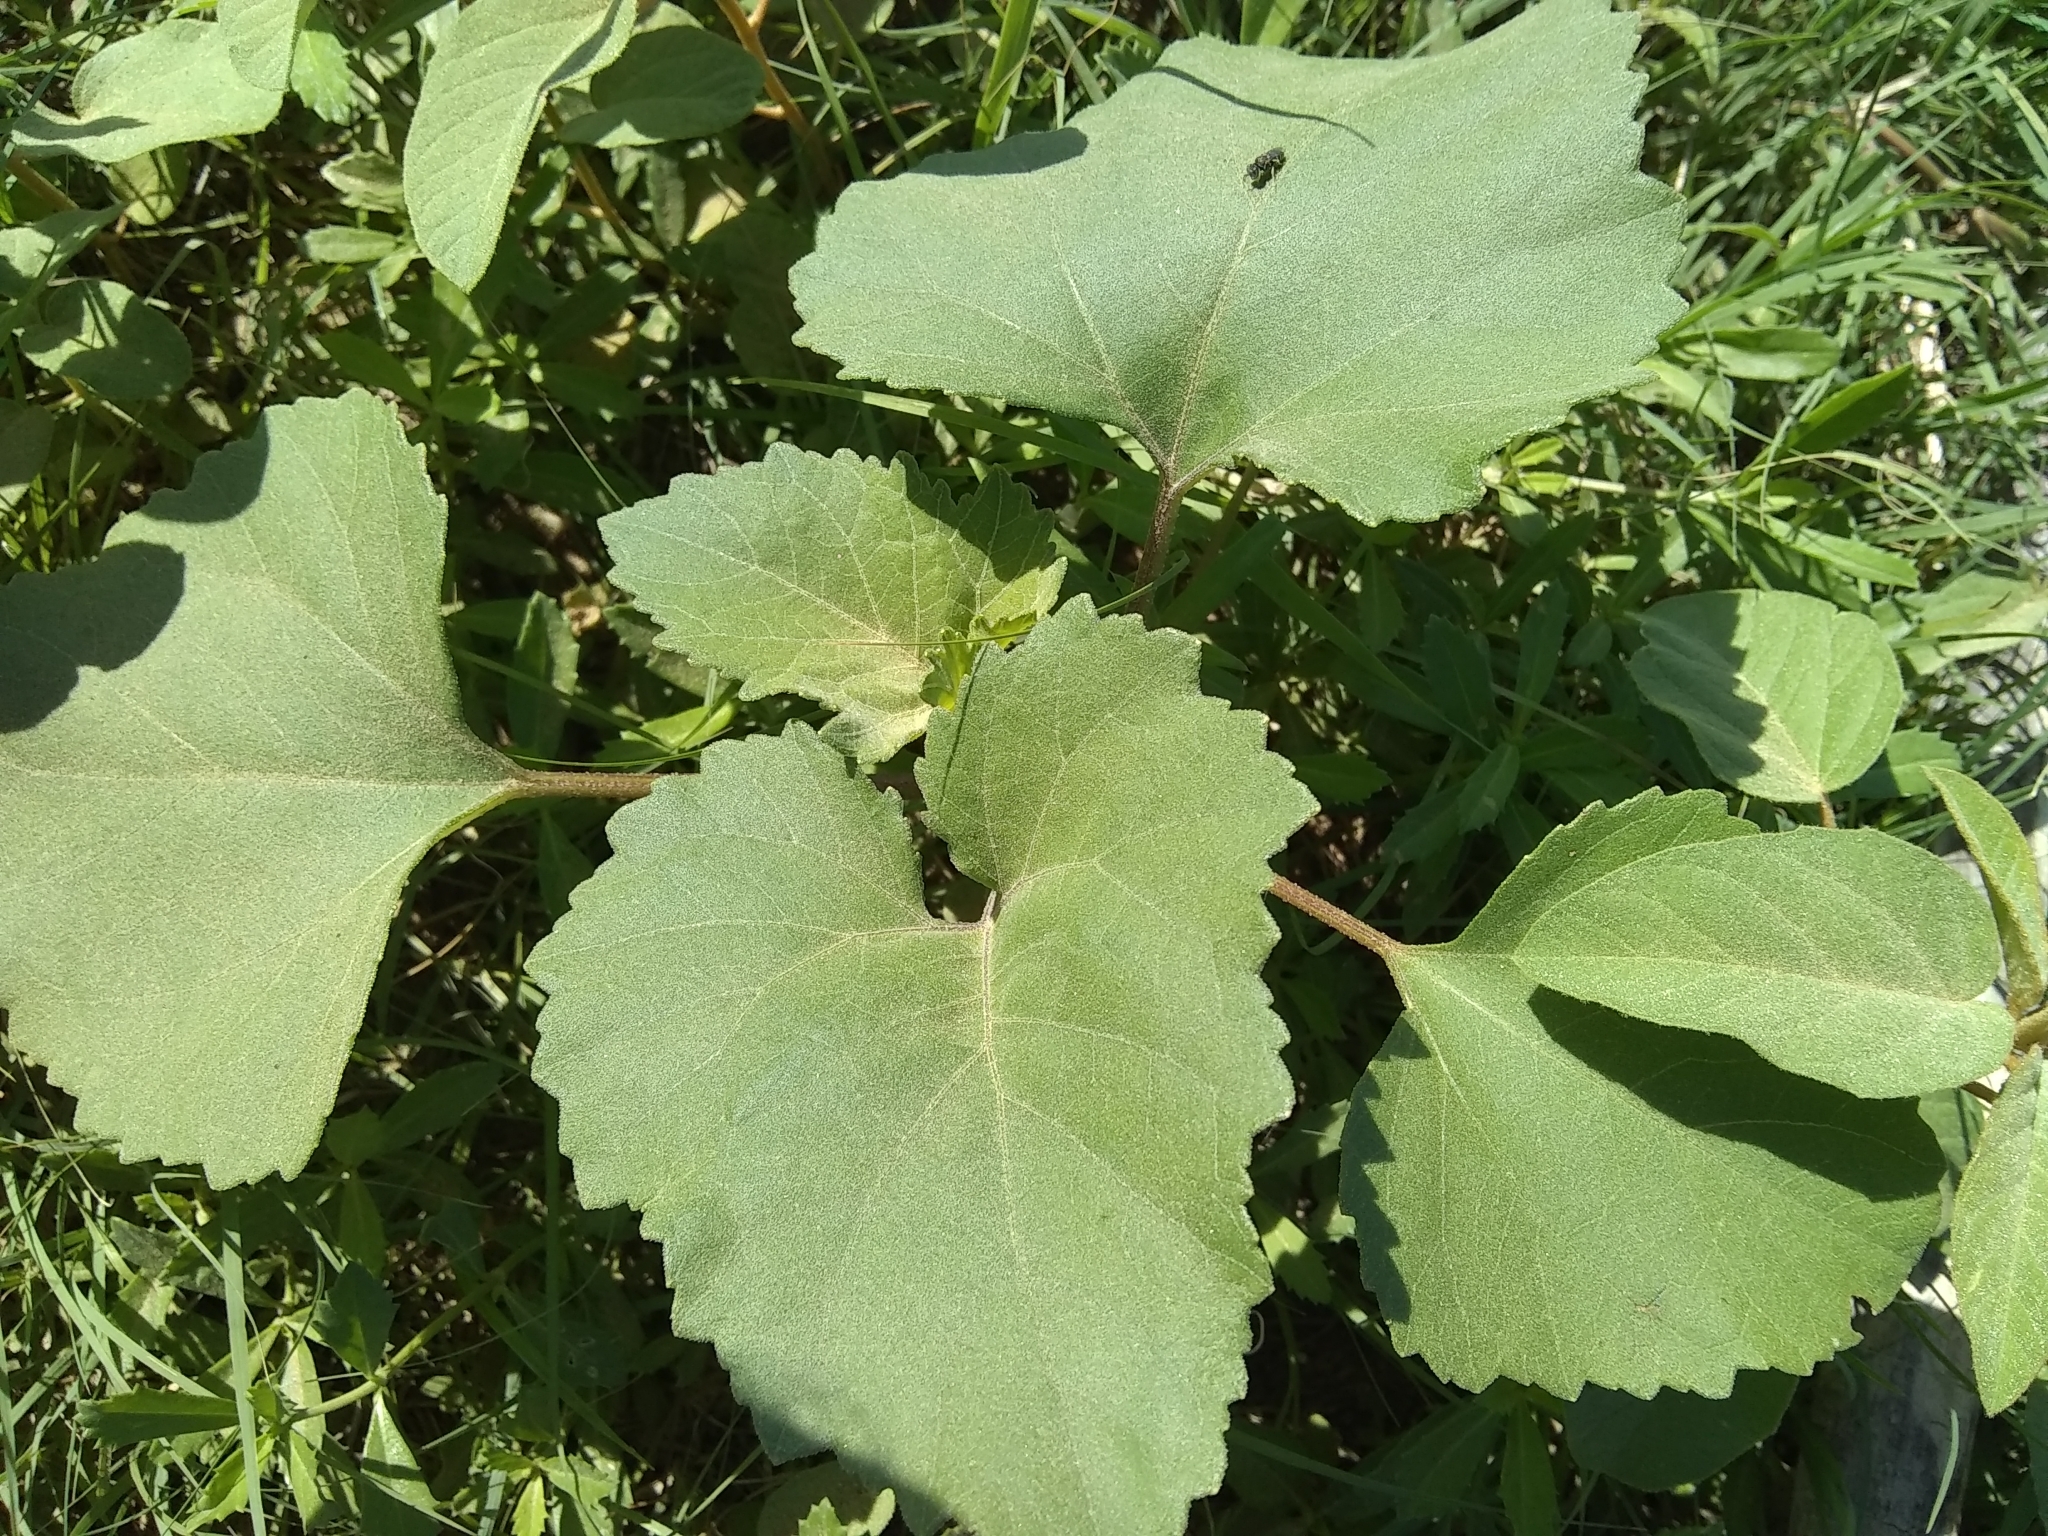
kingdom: Plantae
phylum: Tracheophyta
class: Magnoliopsida
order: Asterales
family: Asteraceae
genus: Xanthium
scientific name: Xanthium strumarium
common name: Rough cocklebur
